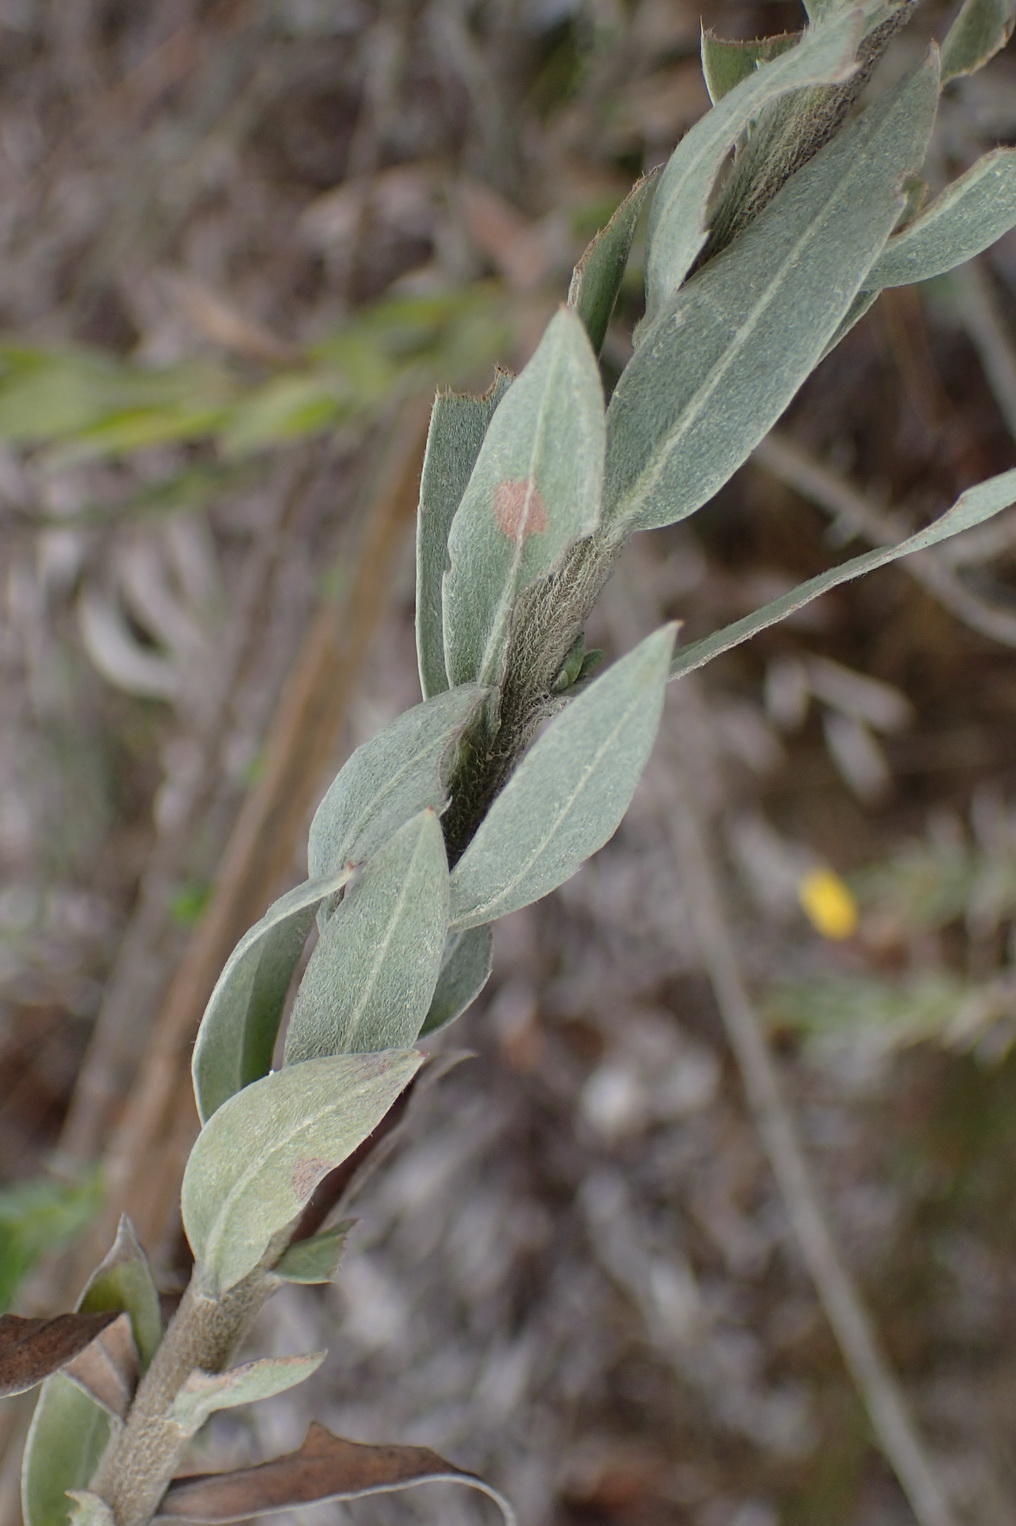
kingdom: Plantae
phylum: Tracheophyta
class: Magnoliopsida
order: Asterales
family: Asteraceae
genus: Schistostephium
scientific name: Schistostephium umbellatum
